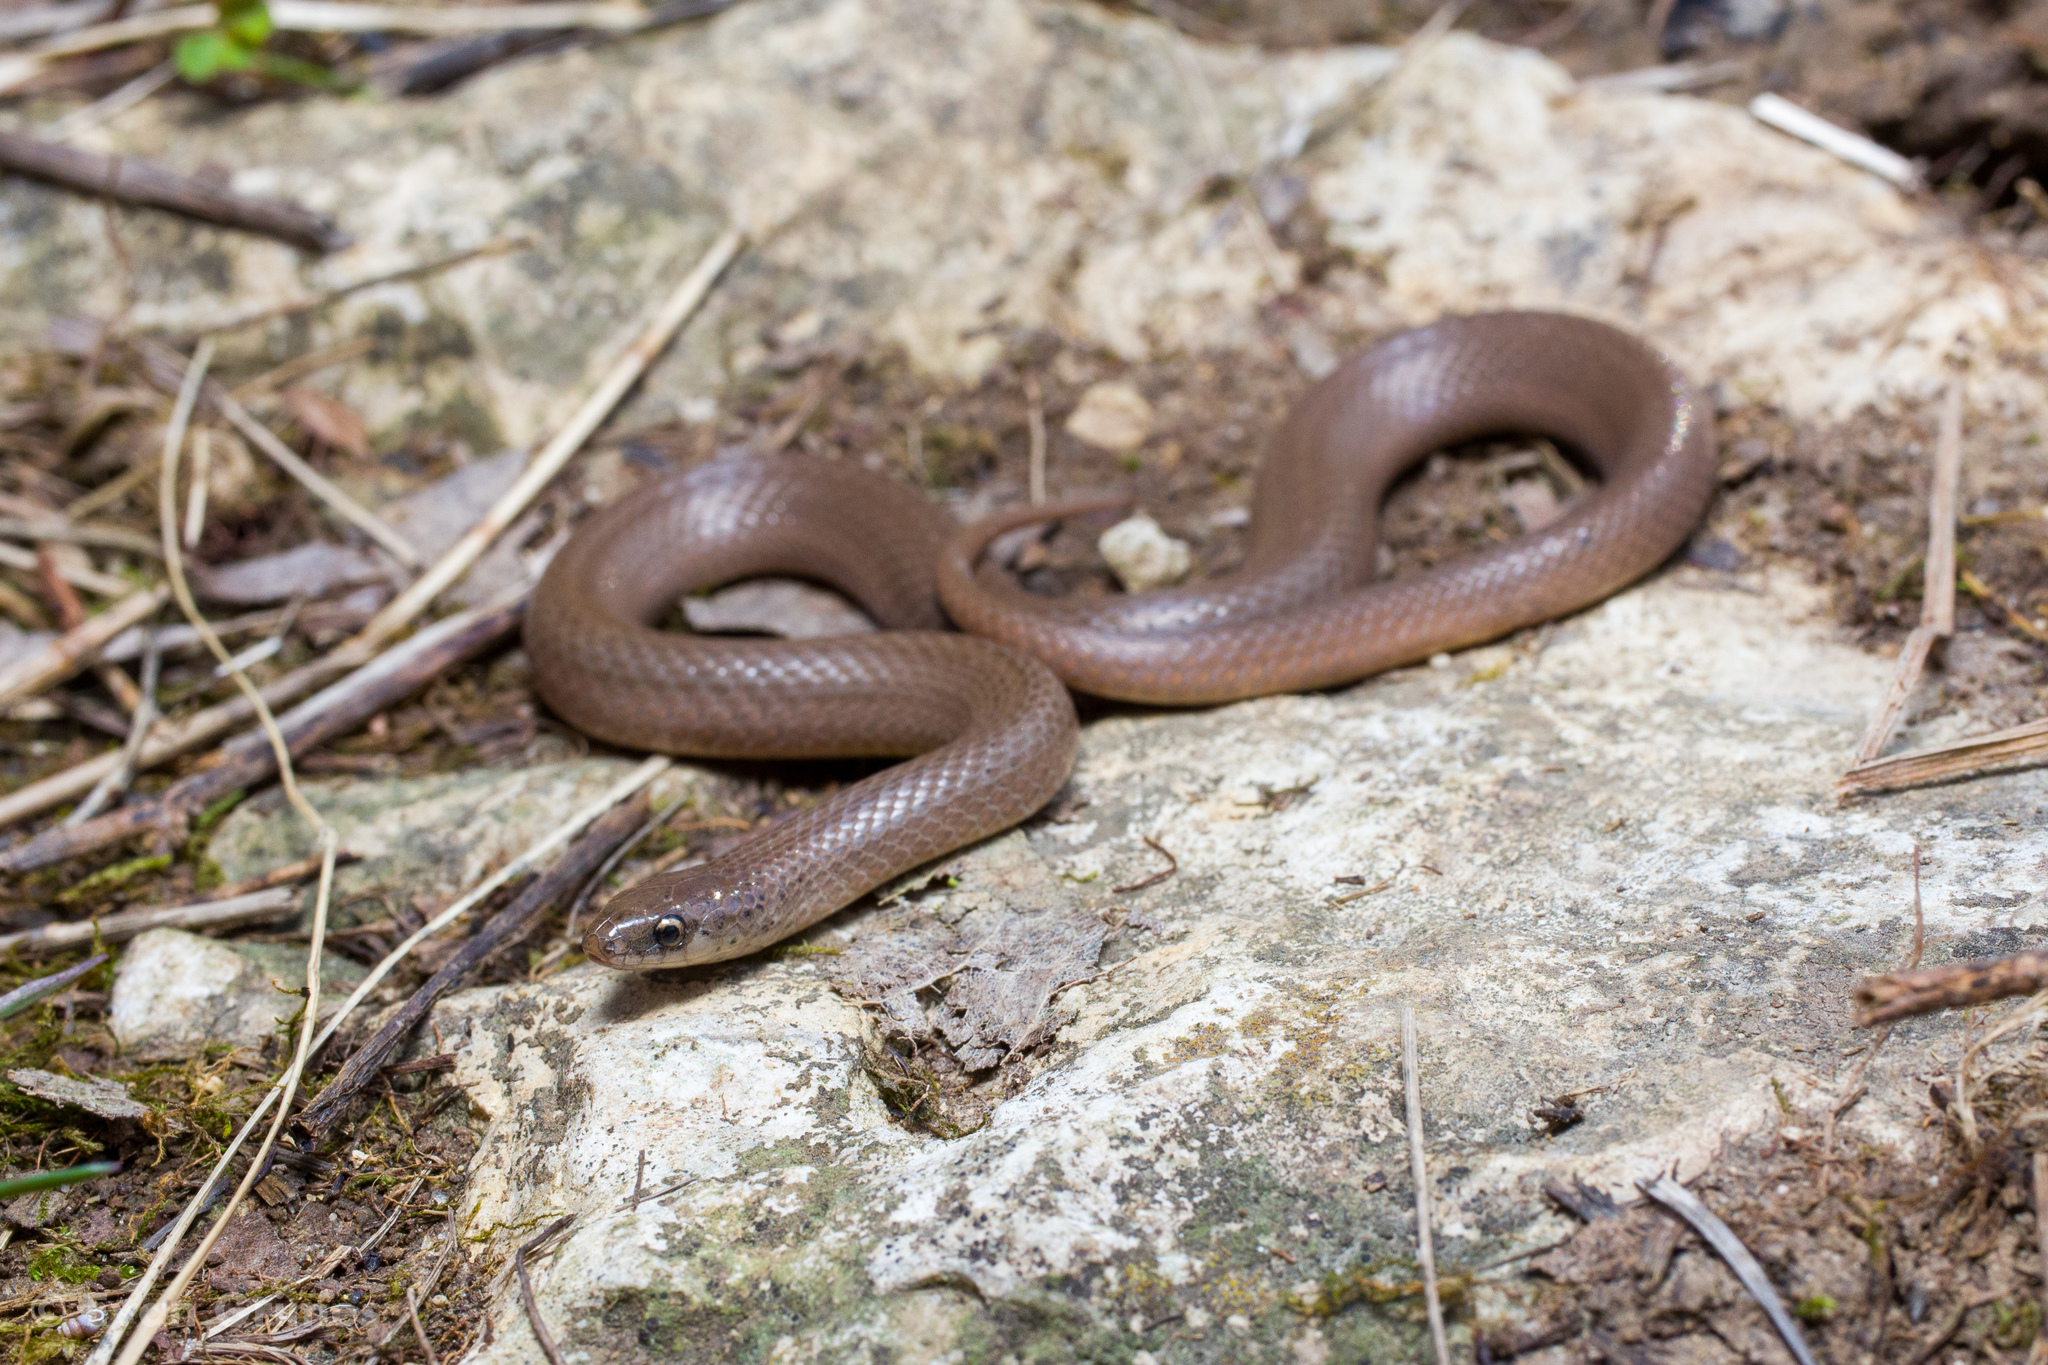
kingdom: Animalia
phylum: Chordata
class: Squamata
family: Colubridae
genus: Virginia
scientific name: Virginia valeriae
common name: Smooth earth snake
